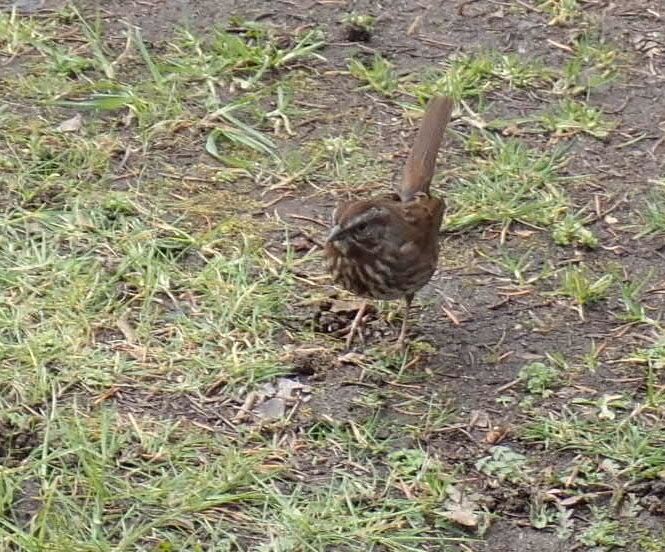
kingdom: Animalia
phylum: Chordata
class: Aves
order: Passeriformes
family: Passerellidae
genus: Melospiza
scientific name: Melospiza melodia
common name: Song sparrow
